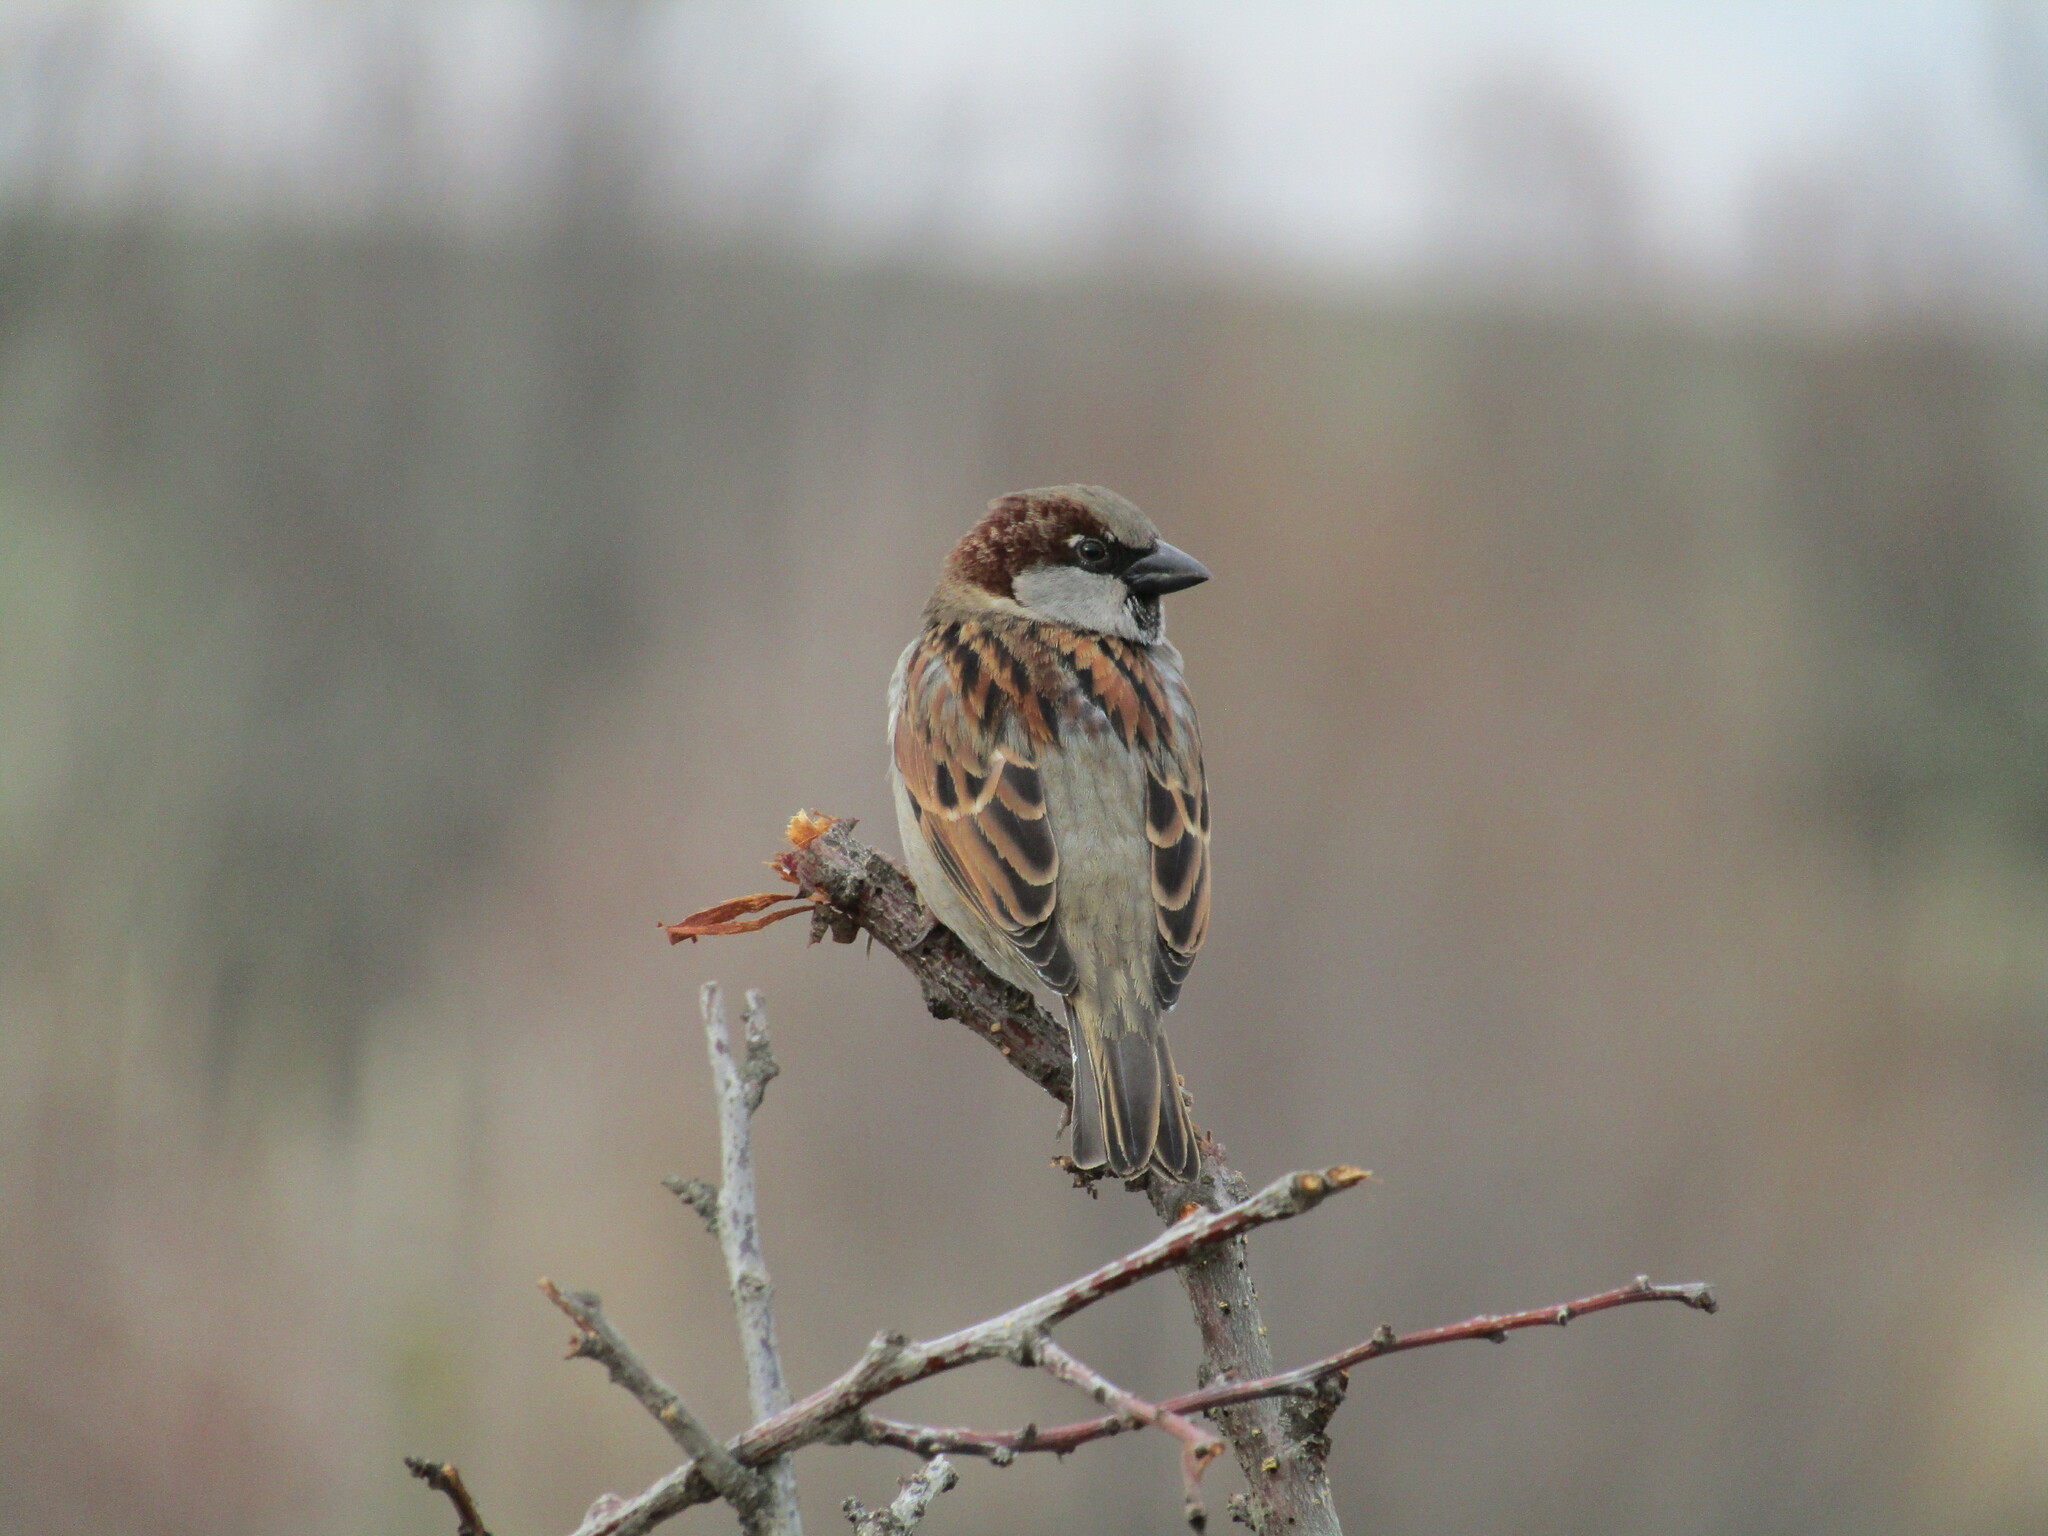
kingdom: Animalia
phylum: Chordata
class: Aves
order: Passeriformes
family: Passeridae
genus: Passer
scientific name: Passer domesticus
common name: House sparrow
